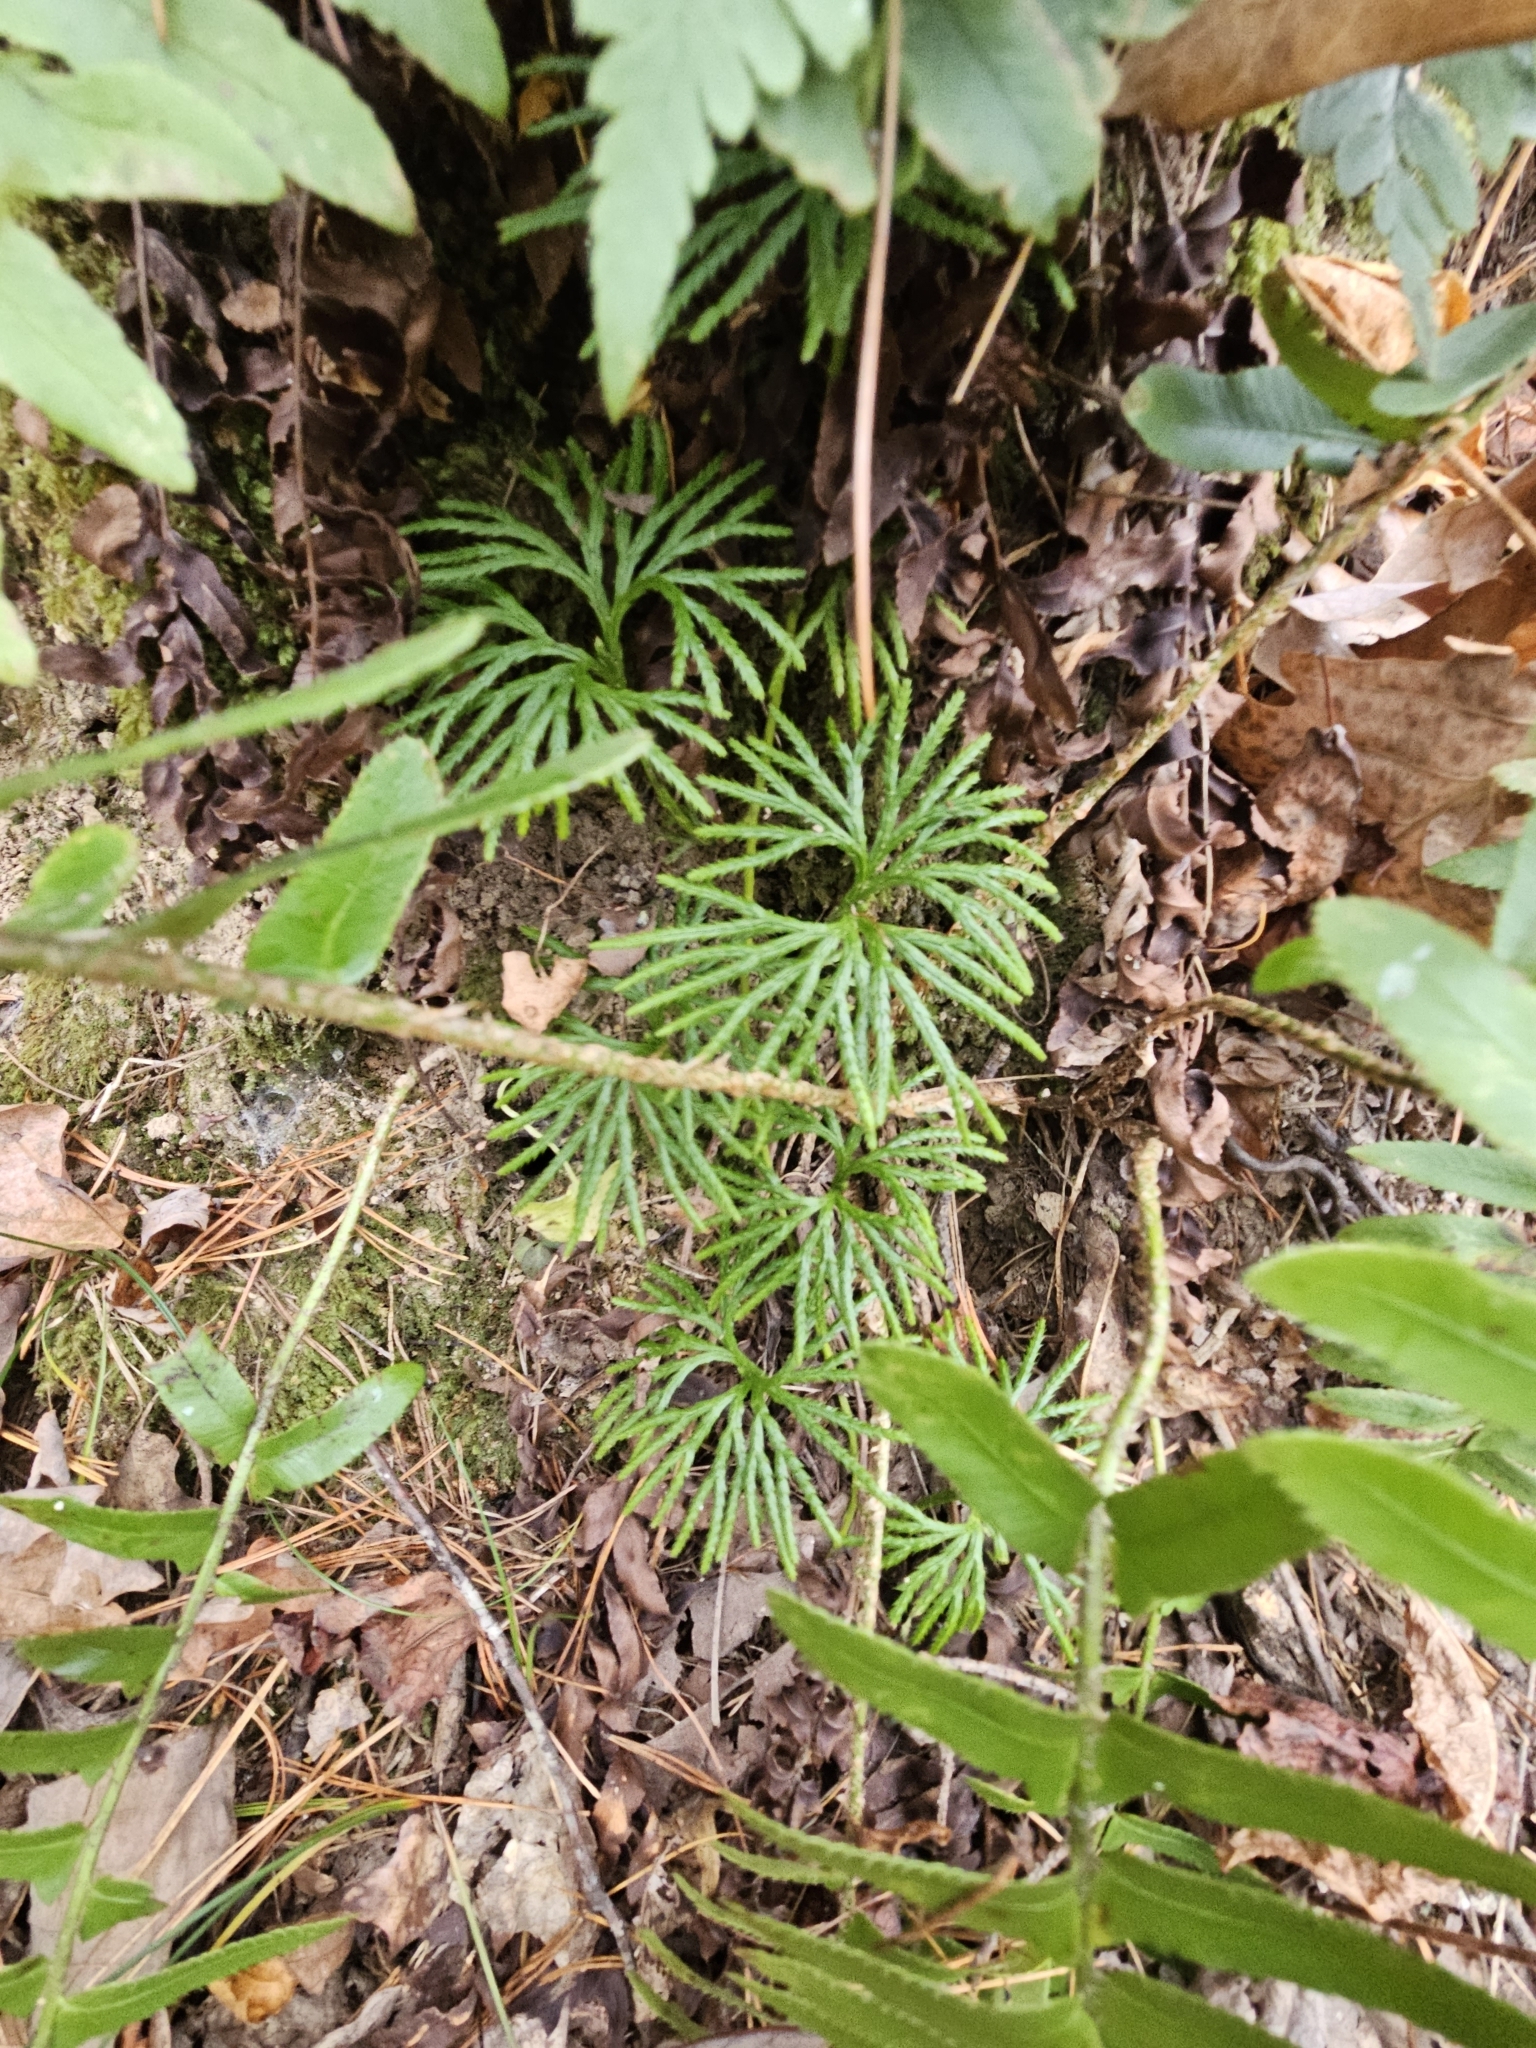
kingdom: Plantae
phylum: Tracheophyta
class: Lycopodiopsida
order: Lycopodiales
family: Lycopodiaceae
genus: Diphasiastrum
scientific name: Diphasiastrum digitatum
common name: Southern running-pine
